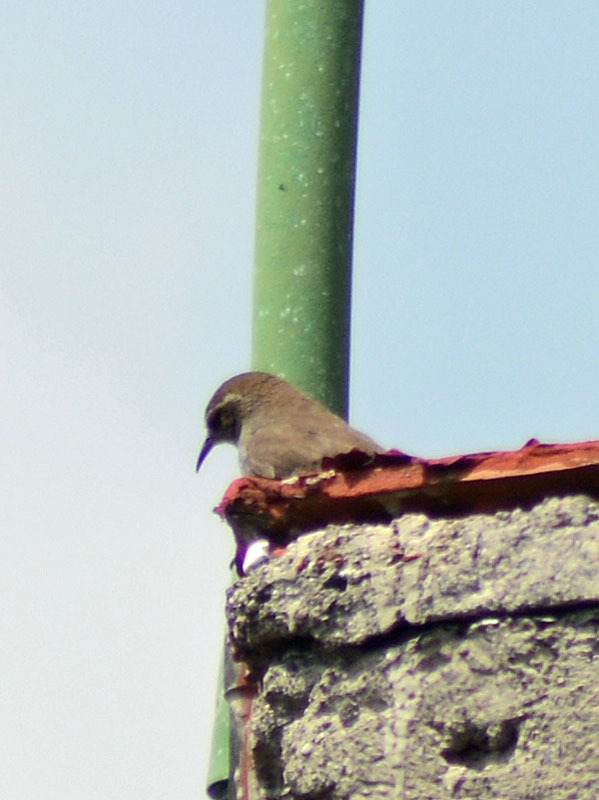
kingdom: Animalia
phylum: Chordata
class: Aves
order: Passeriformes
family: Troglodytidae
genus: Thryomanes
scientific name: Thryomanes bewickii
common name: Bewick's wren
